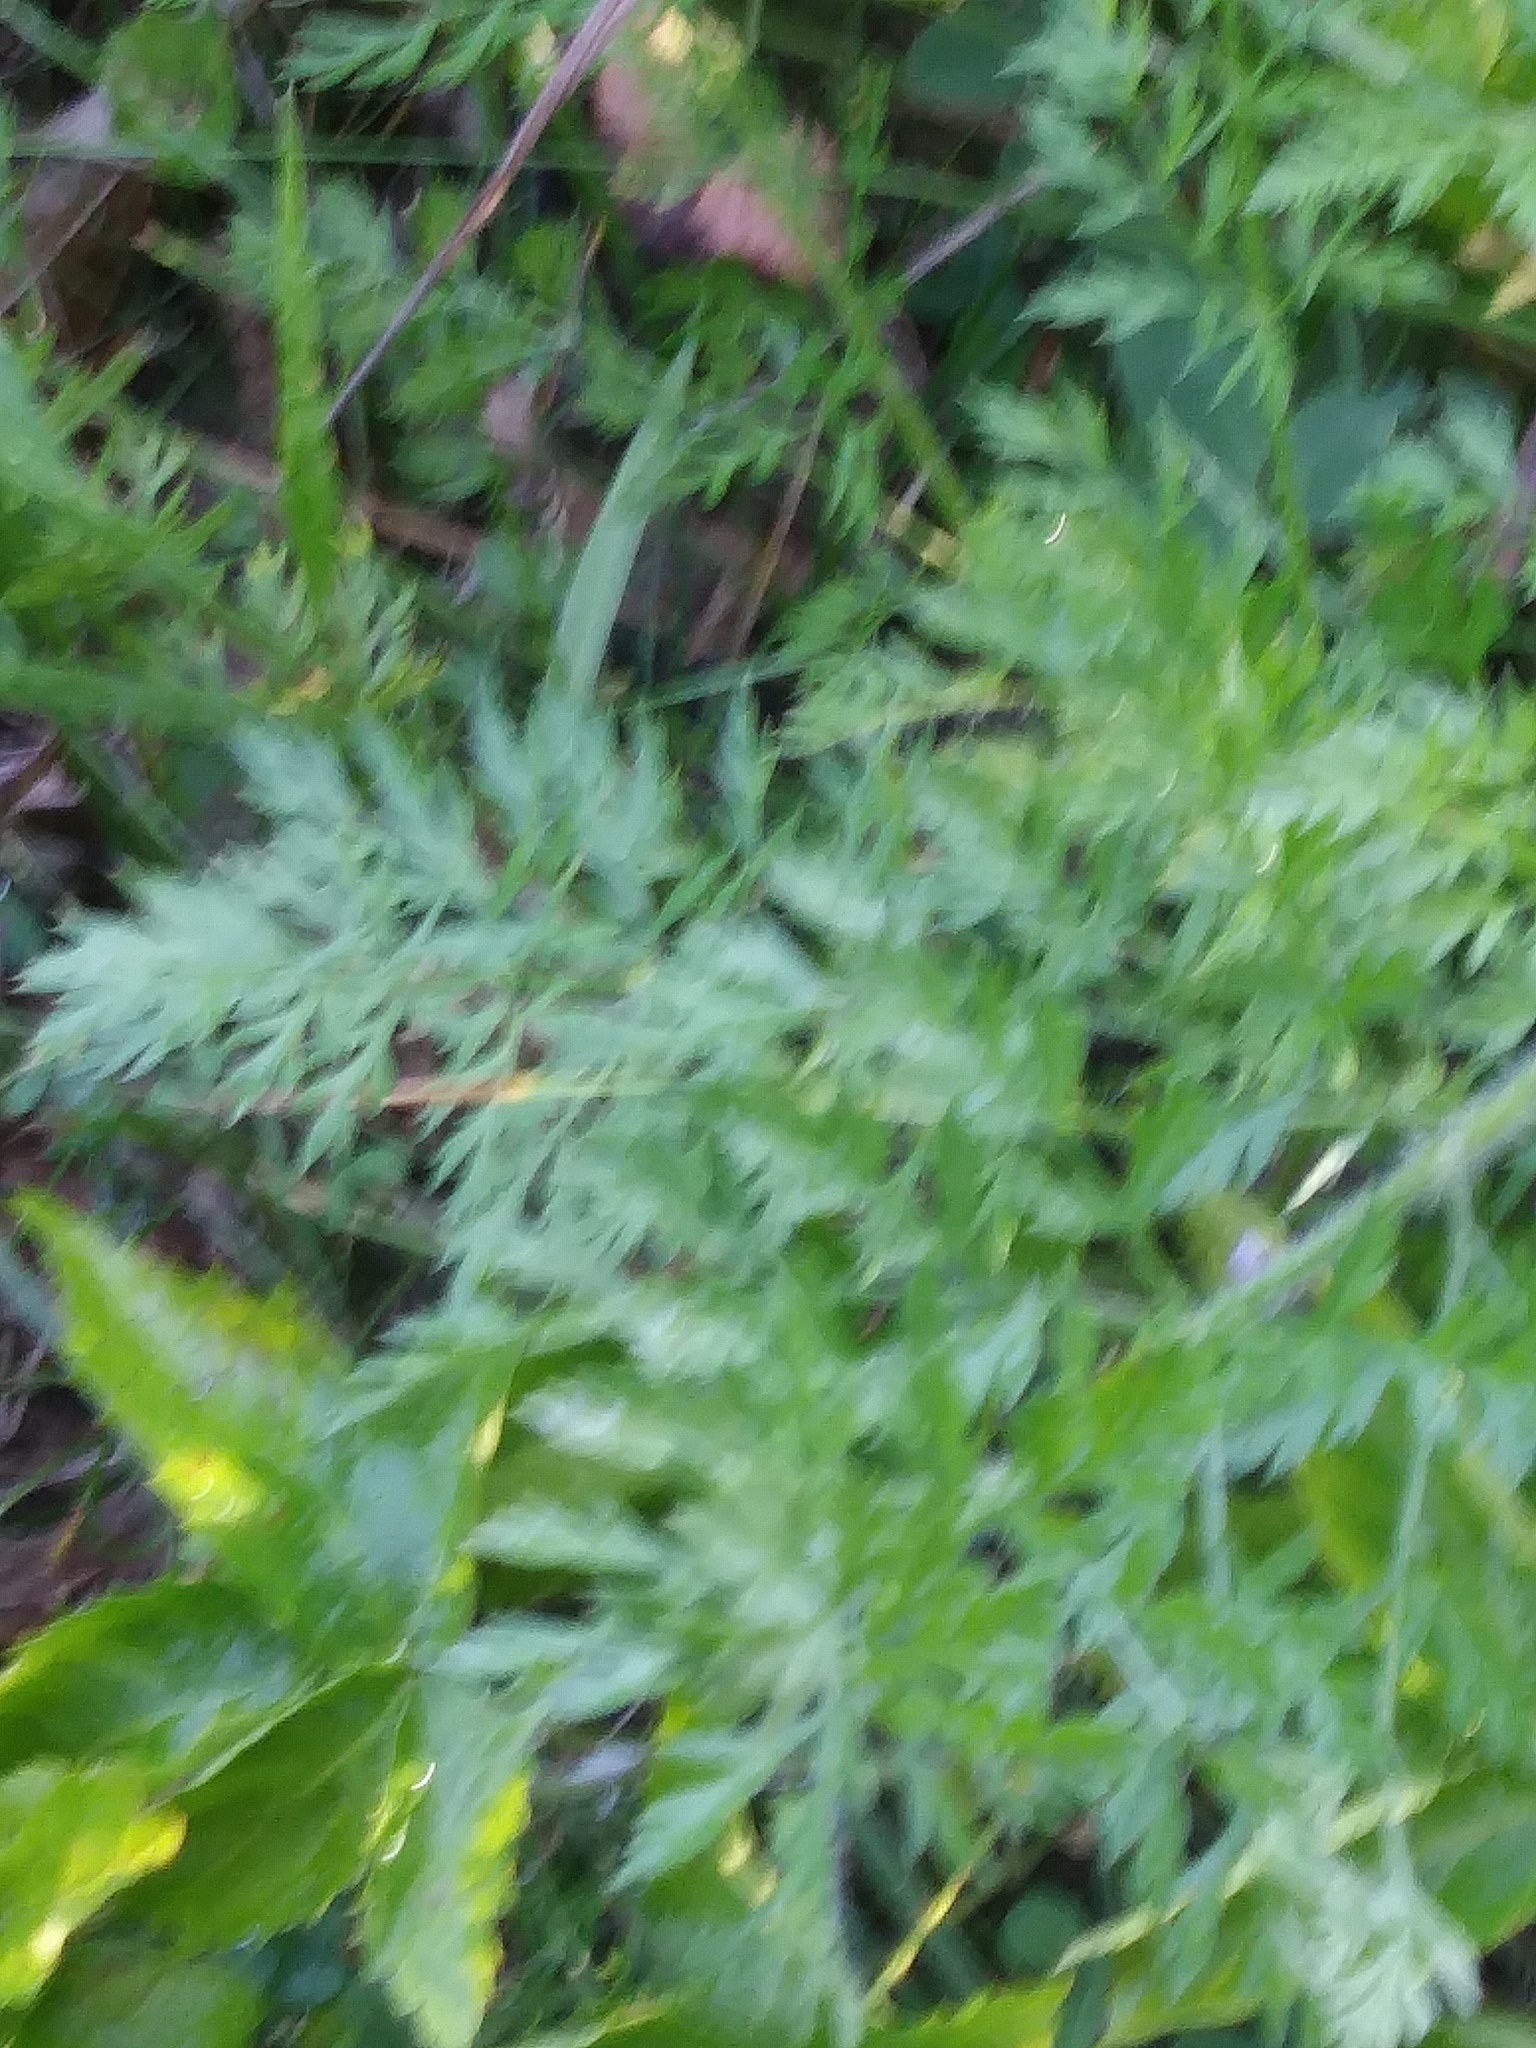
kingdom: Plantae
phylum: Tracheophyta
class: Magnoliopsida
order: Apiales
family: Apiaceae
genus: Daucus
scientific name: Daucus carota
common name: Wild carrot
